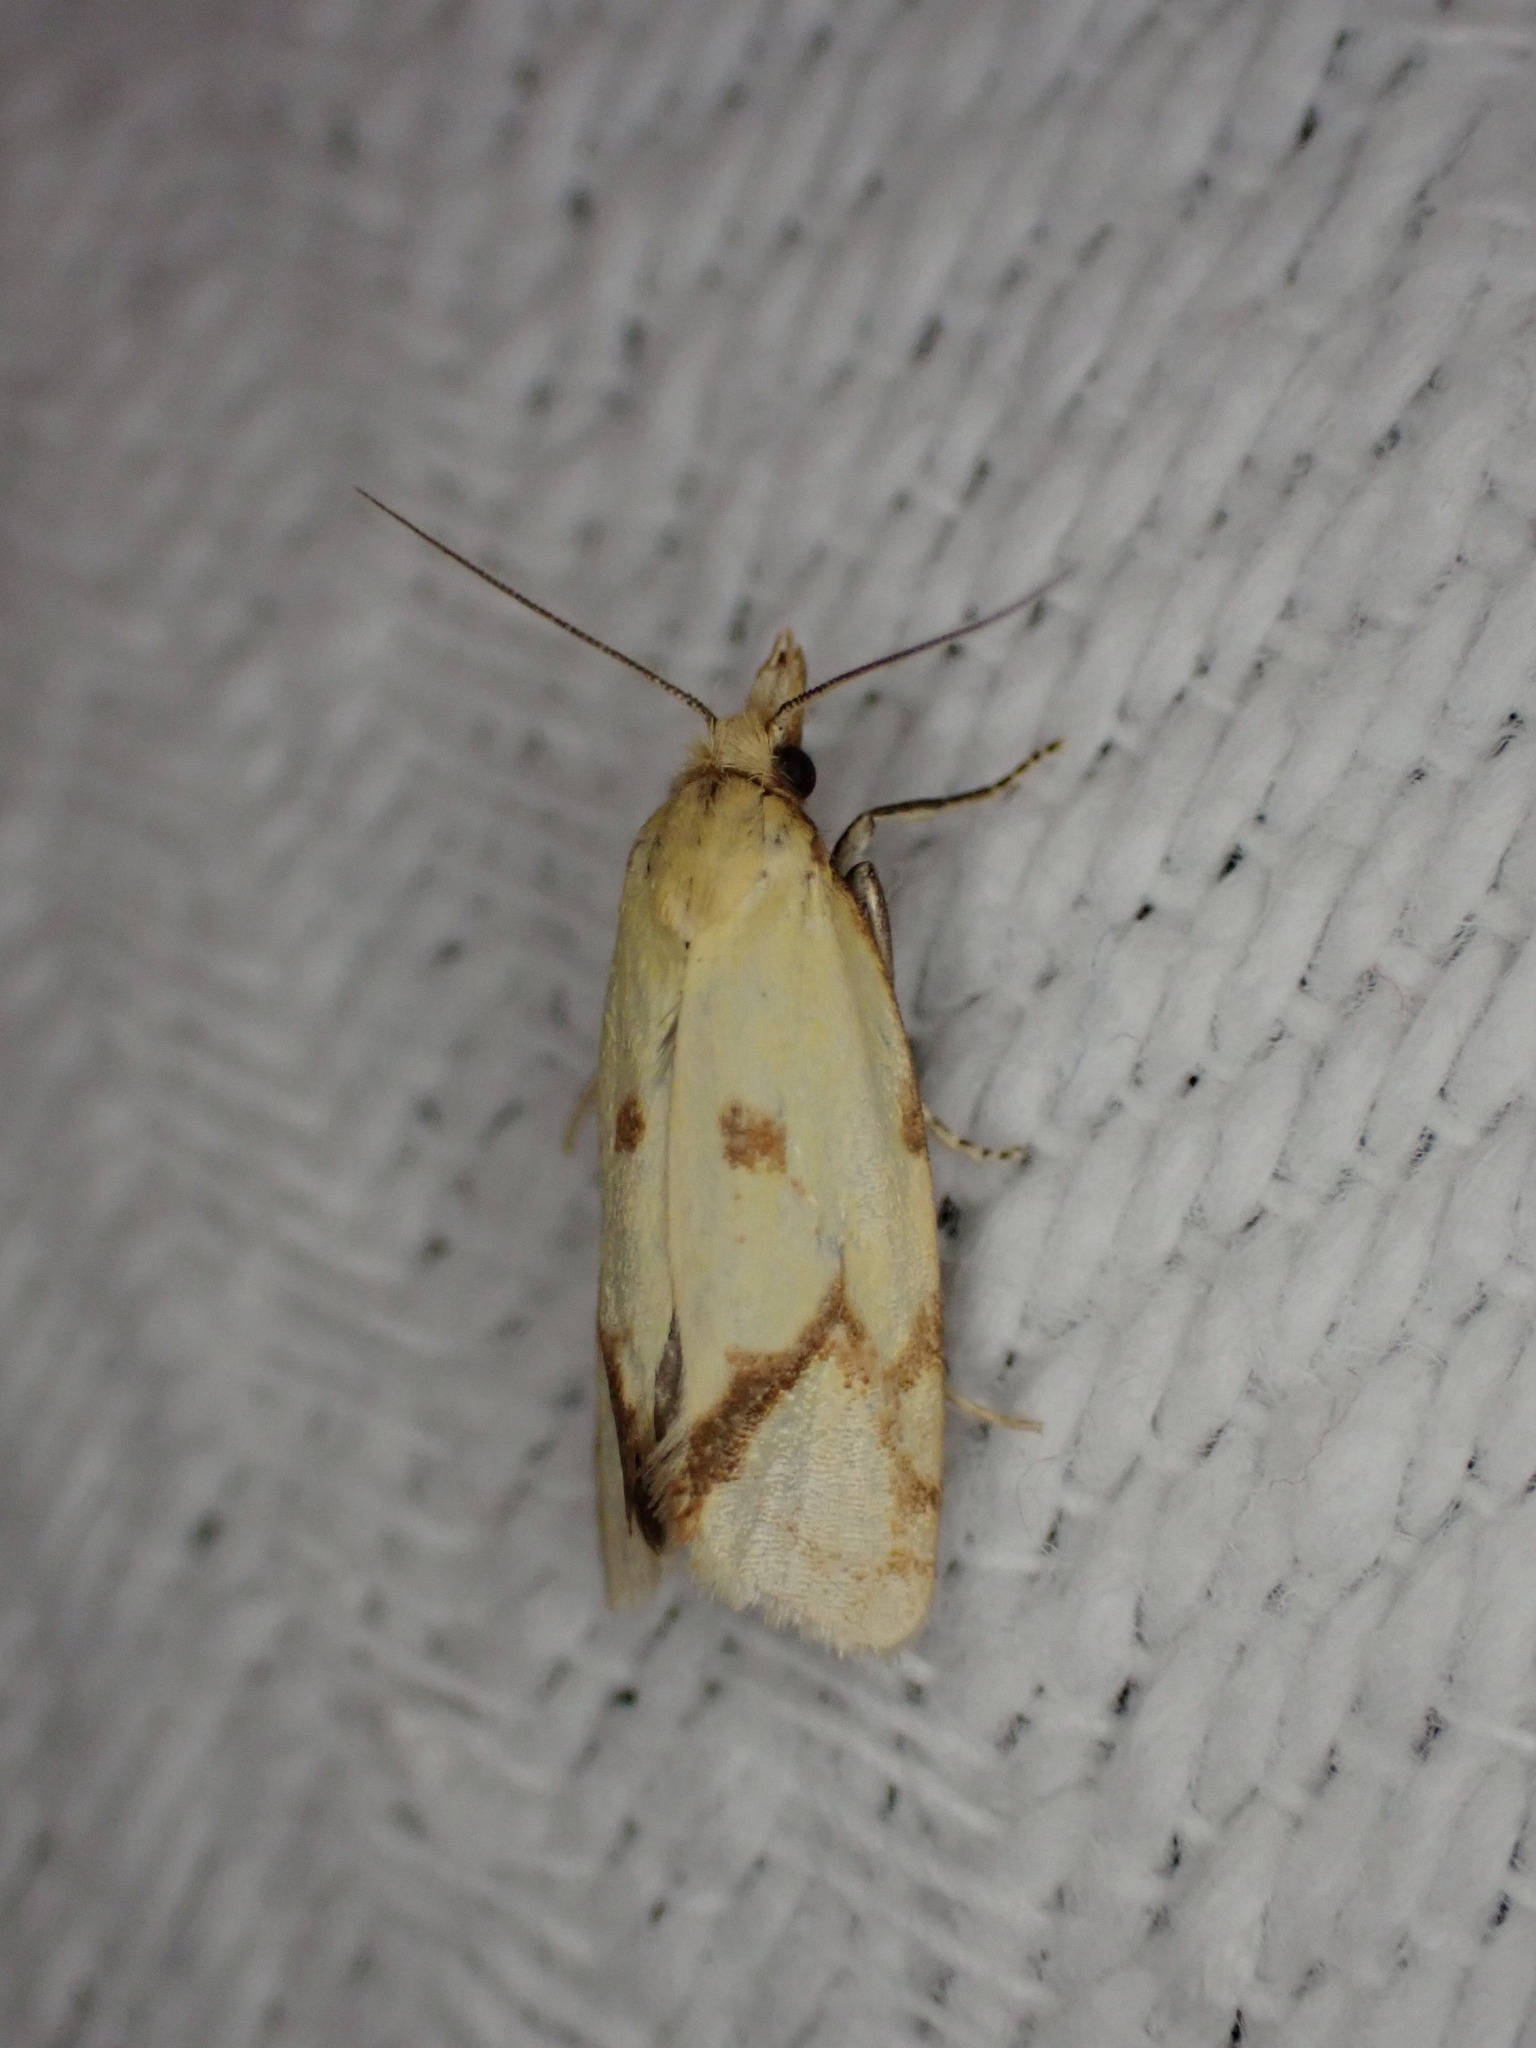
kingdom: Animalia
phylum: Arthropoda
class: Insecta
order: Lepidoptera
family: Tortricidae
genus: Agapeta
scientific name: Agapeta hamana
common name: Common yellow conch
